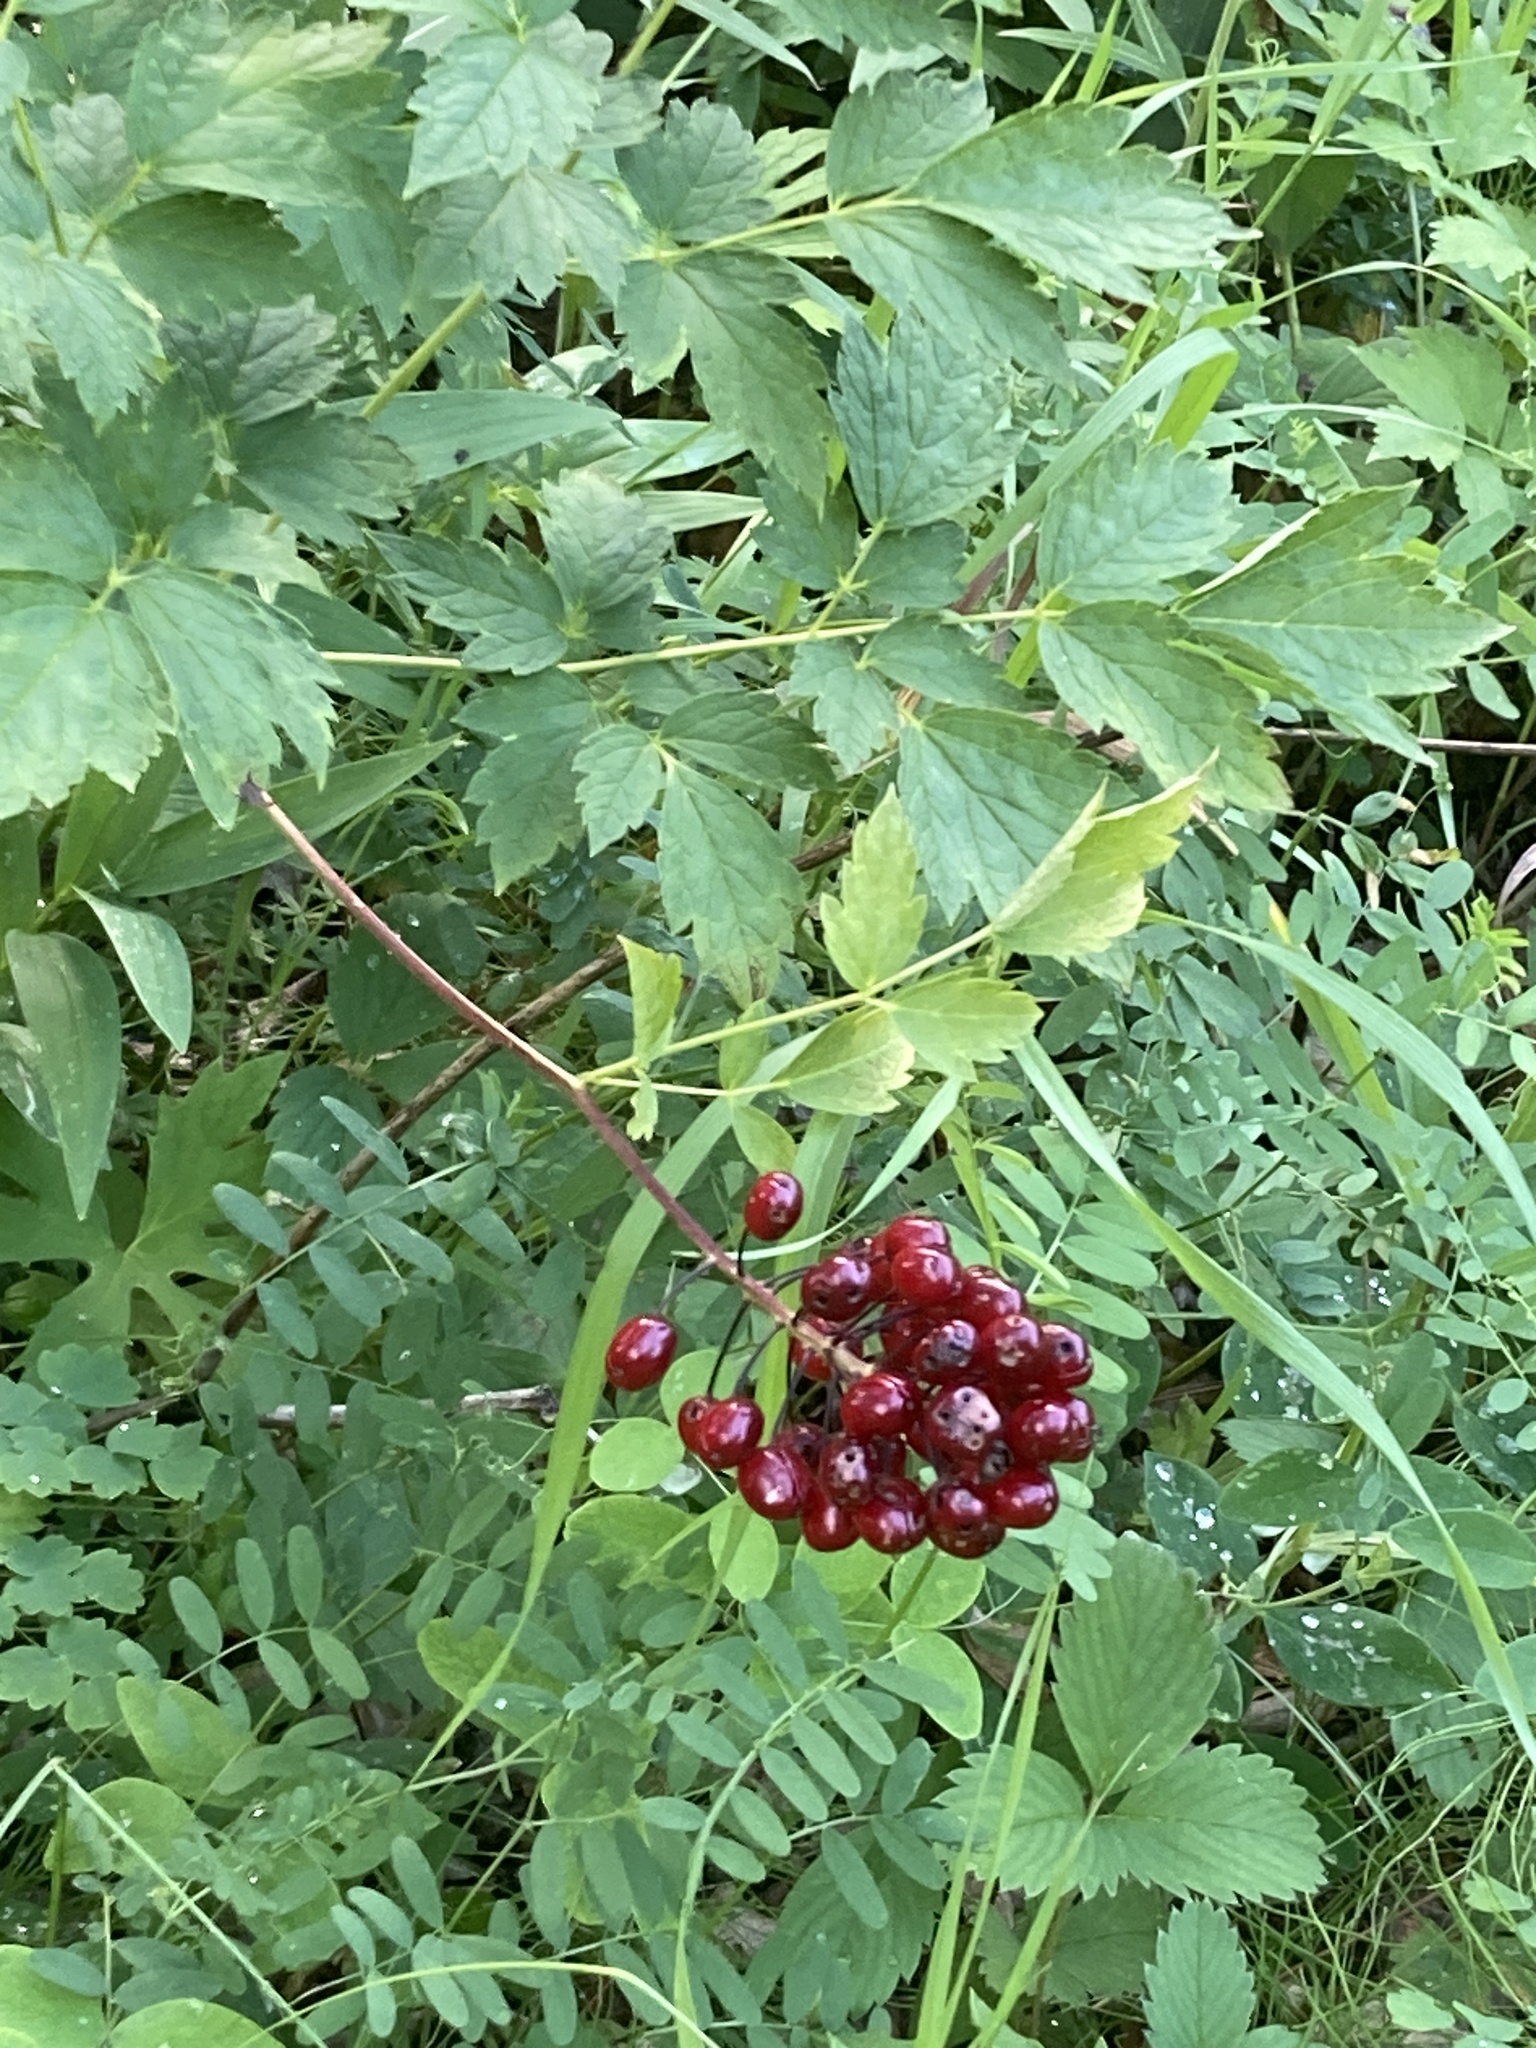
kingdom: Plantae
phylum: Tracheophyta
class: Magnoliopsida
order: Ranunculales
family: Ranunculaceae
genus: Actaea
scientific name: Actaea rubra
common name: Red baneberry
